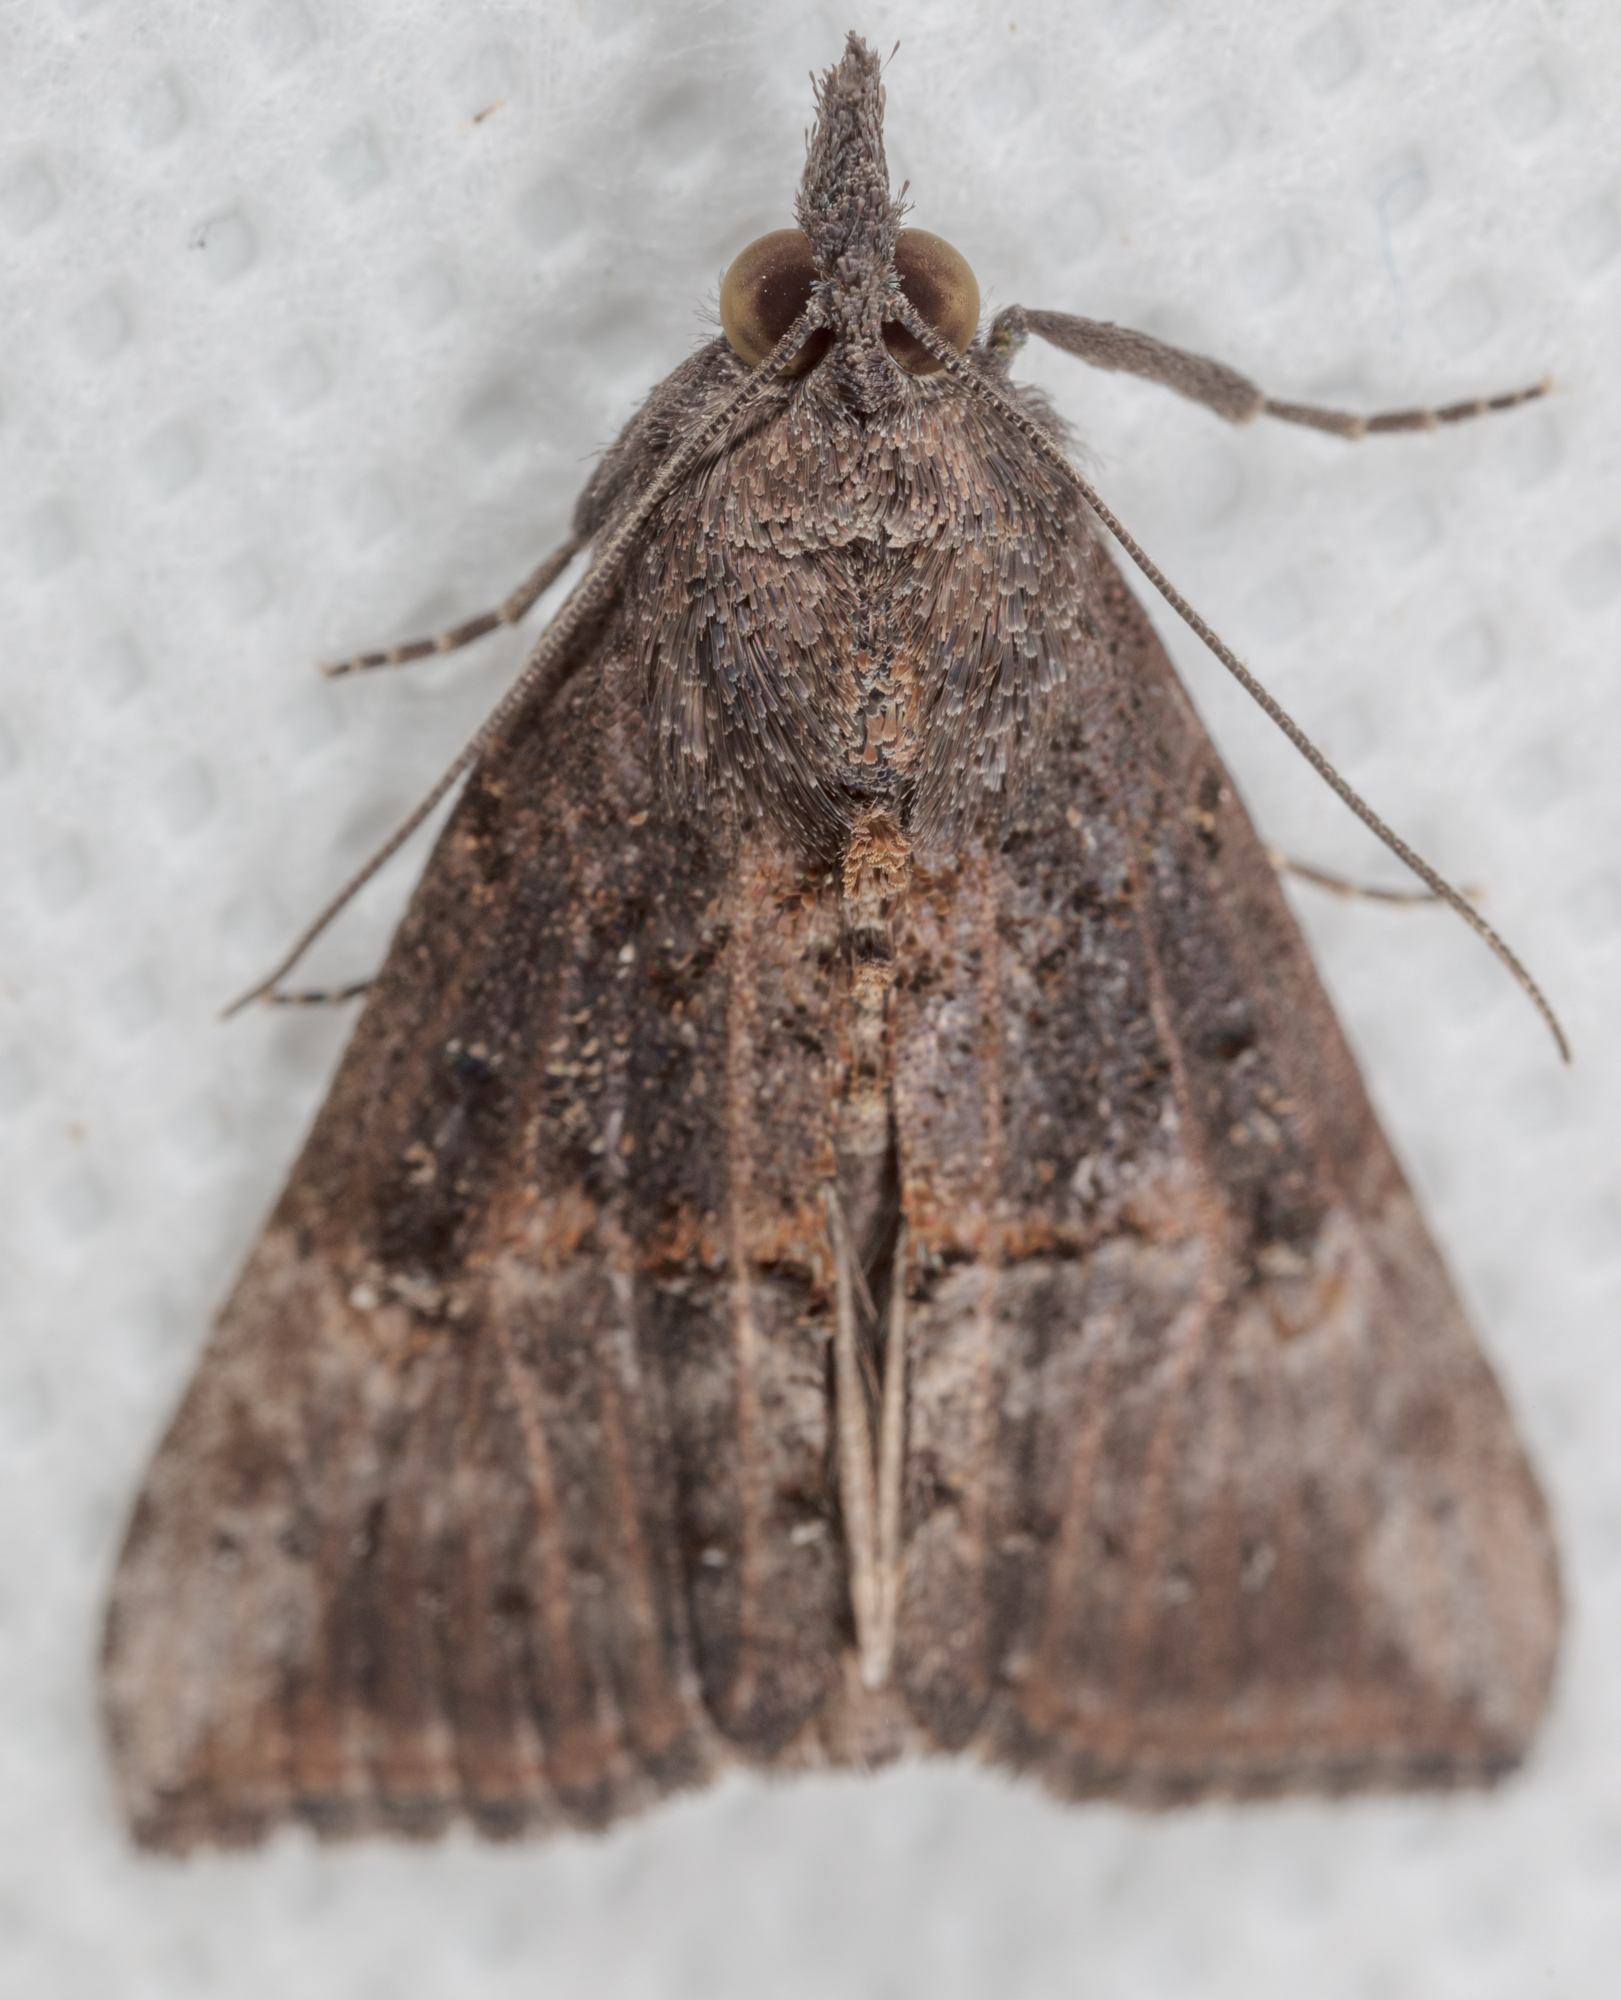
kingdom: Animalia
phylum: Arthropoda
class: Insecta
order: Lepidoptera
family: Erebidae
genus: Hypena
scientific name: Hypena scabra
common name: Green cloverworm
